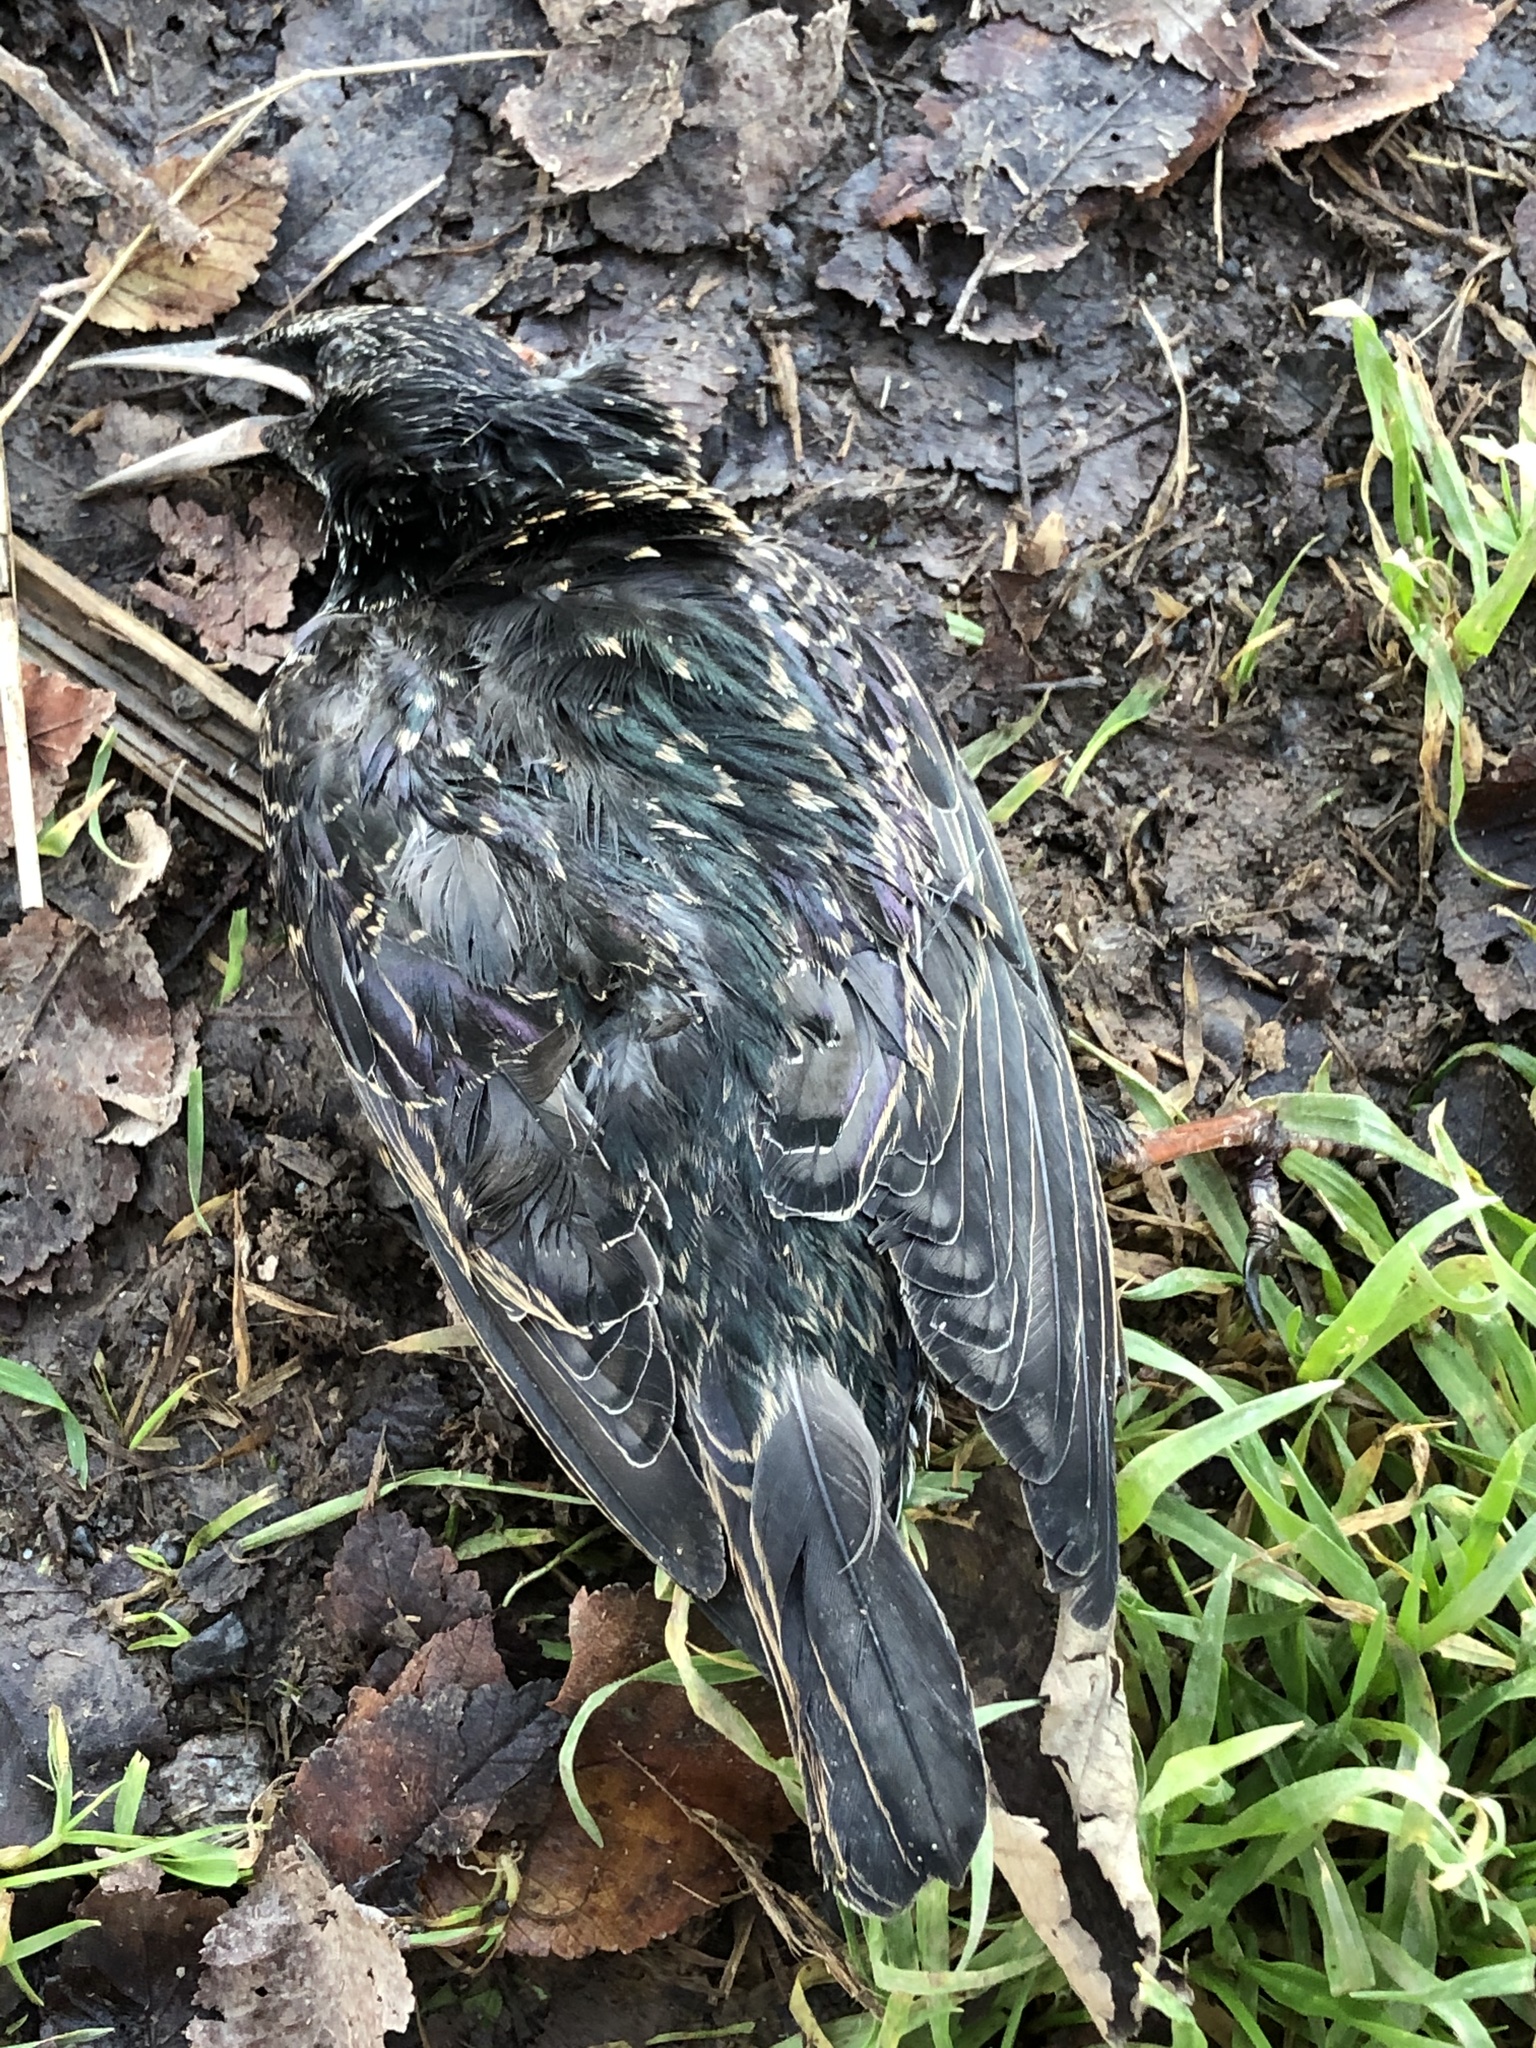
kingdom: Animalia
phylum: Chordata
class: Aves
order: Passeriformes
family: Sturnidae
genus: Sturnus
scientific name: Sturnus vulgaris
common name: Common starling
